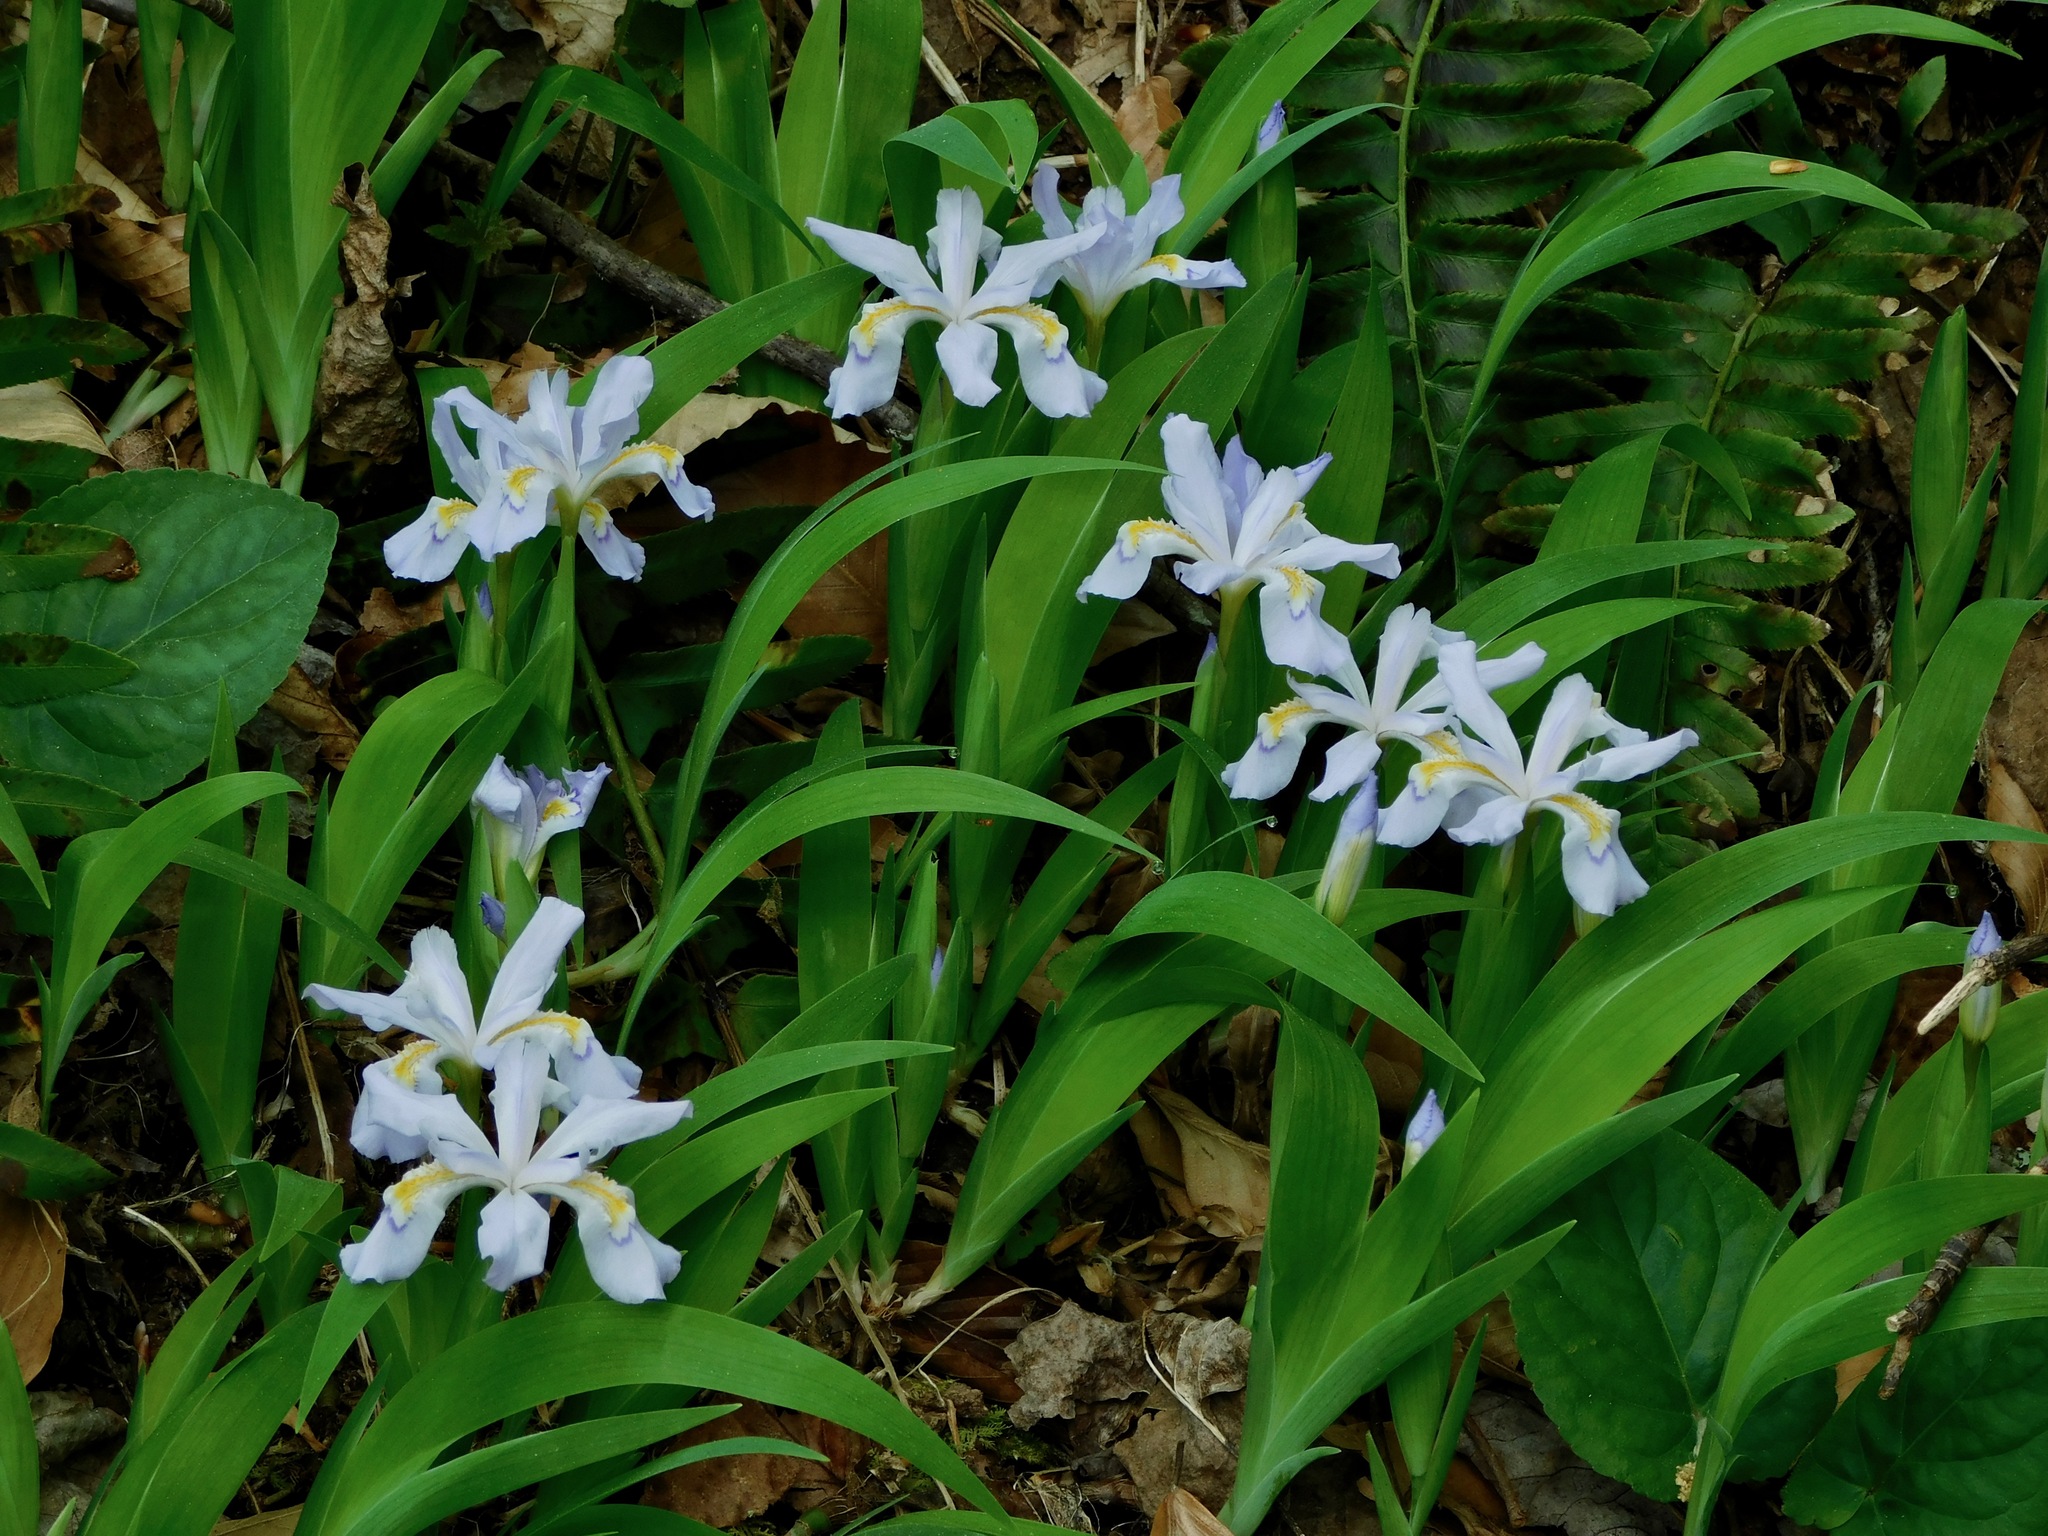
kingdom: Plantae
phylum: Tracheophyta
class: Liliopsida
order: Asparagales
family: Iridaceae
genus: Iris
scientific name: Iris cristata
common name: Crested iris
